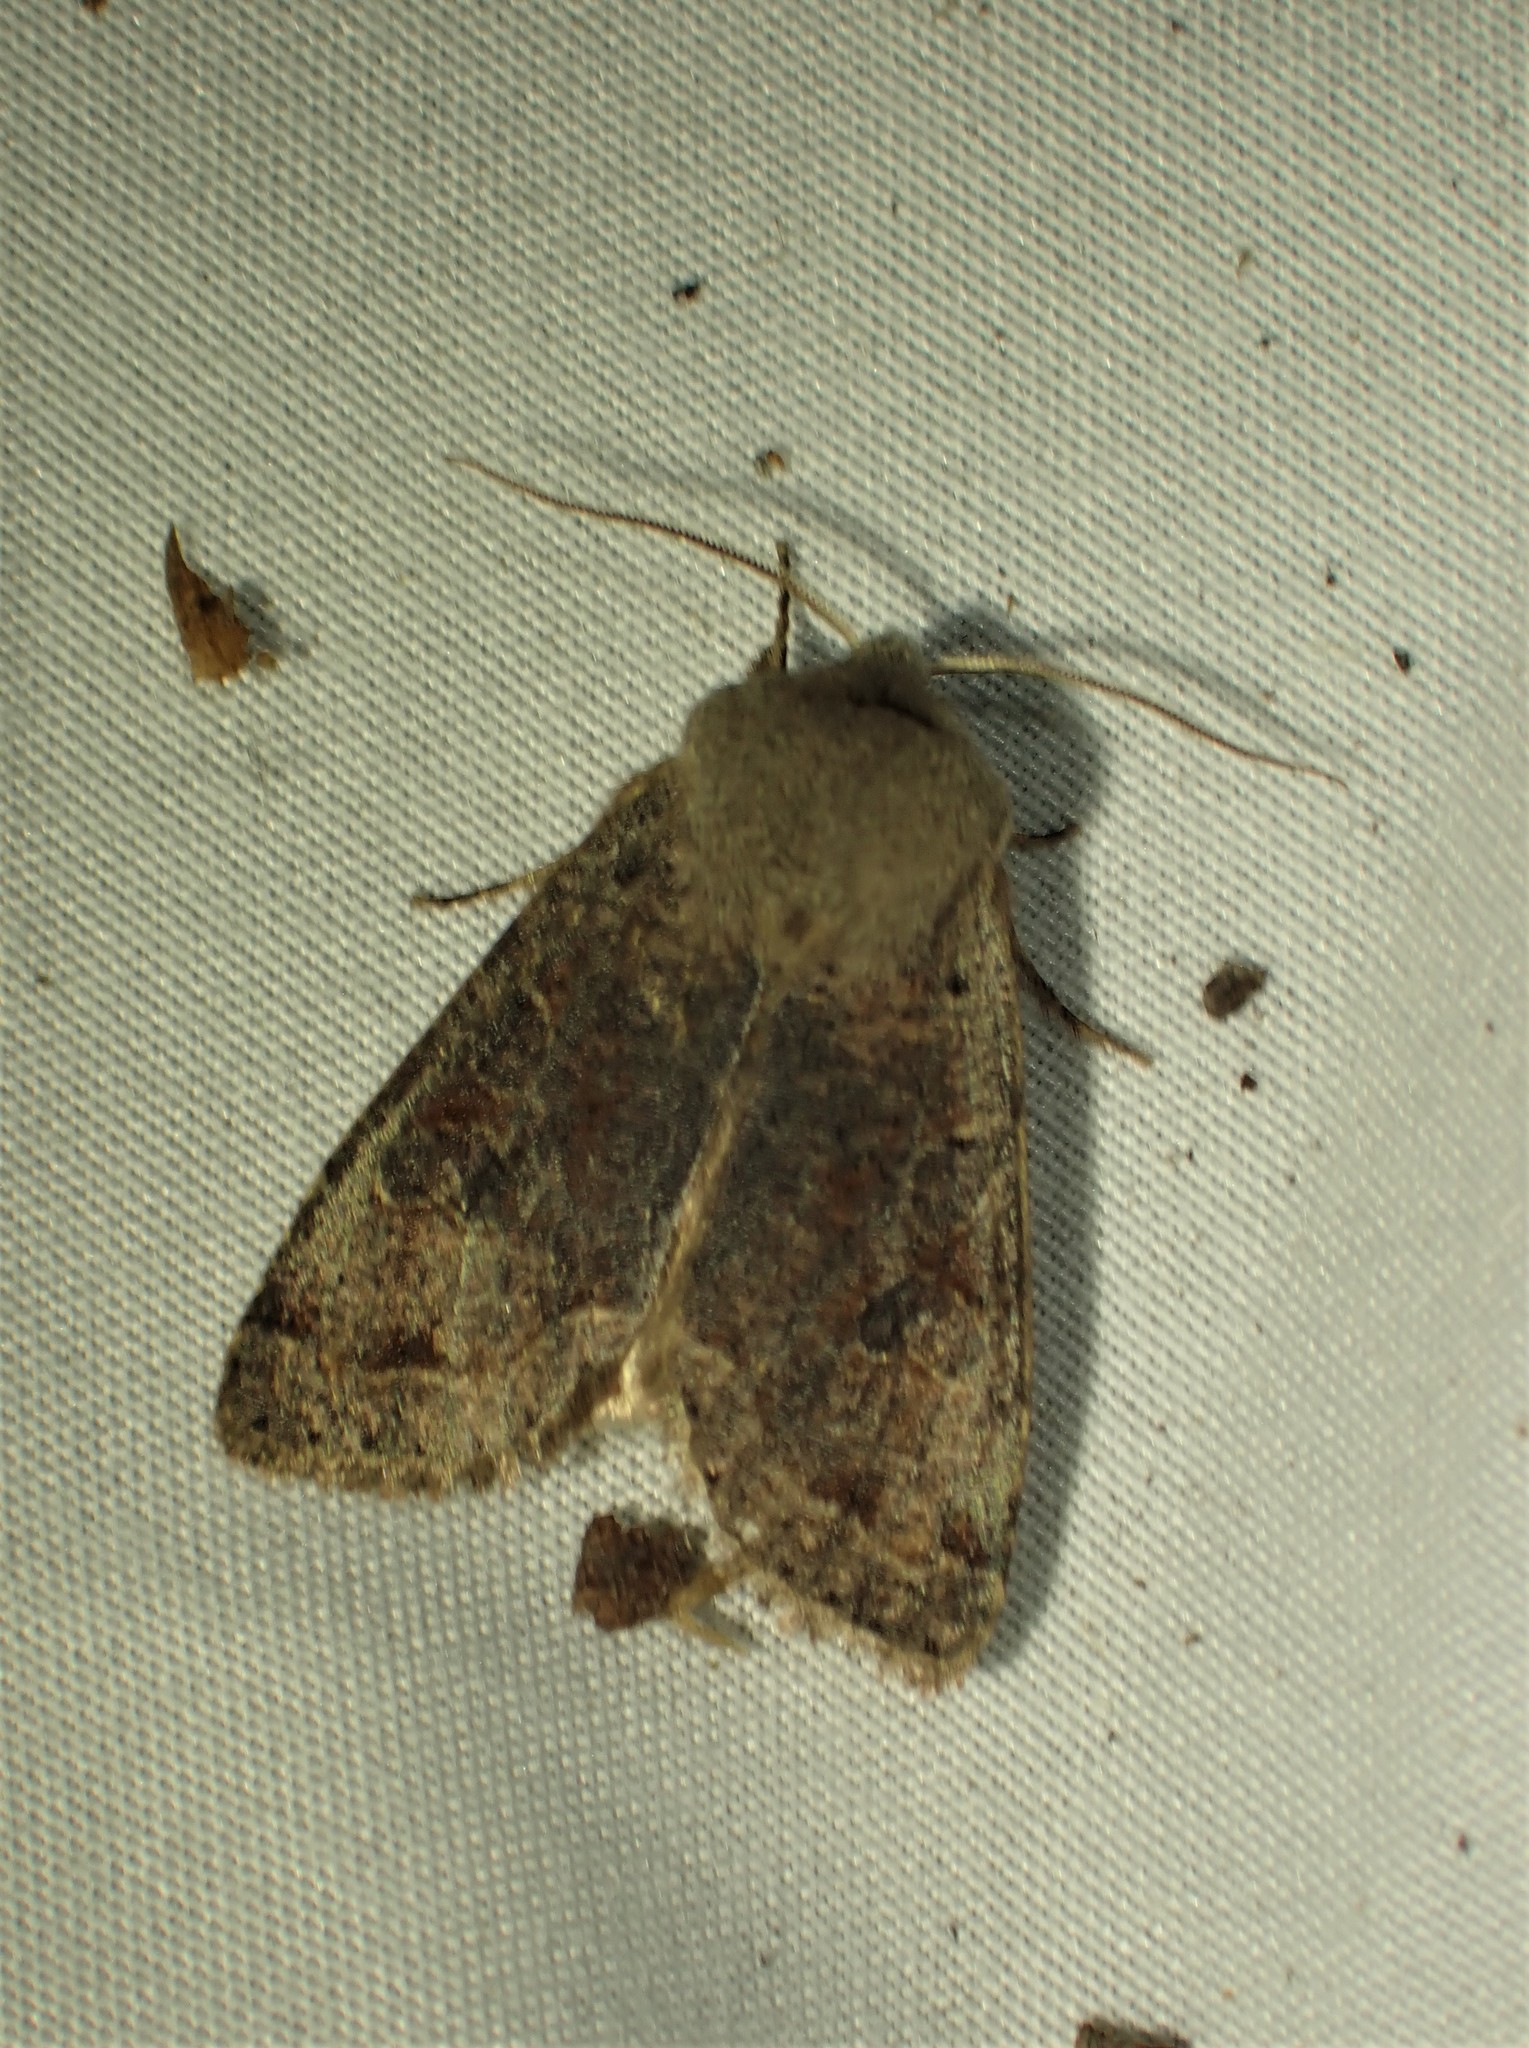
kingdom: Animalia
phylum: Arthropoda
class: Insecta
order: Lepidoptera
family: Noctuidae
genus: Orthosia
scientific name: Orthosia hibisci
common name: Green fruitworm
